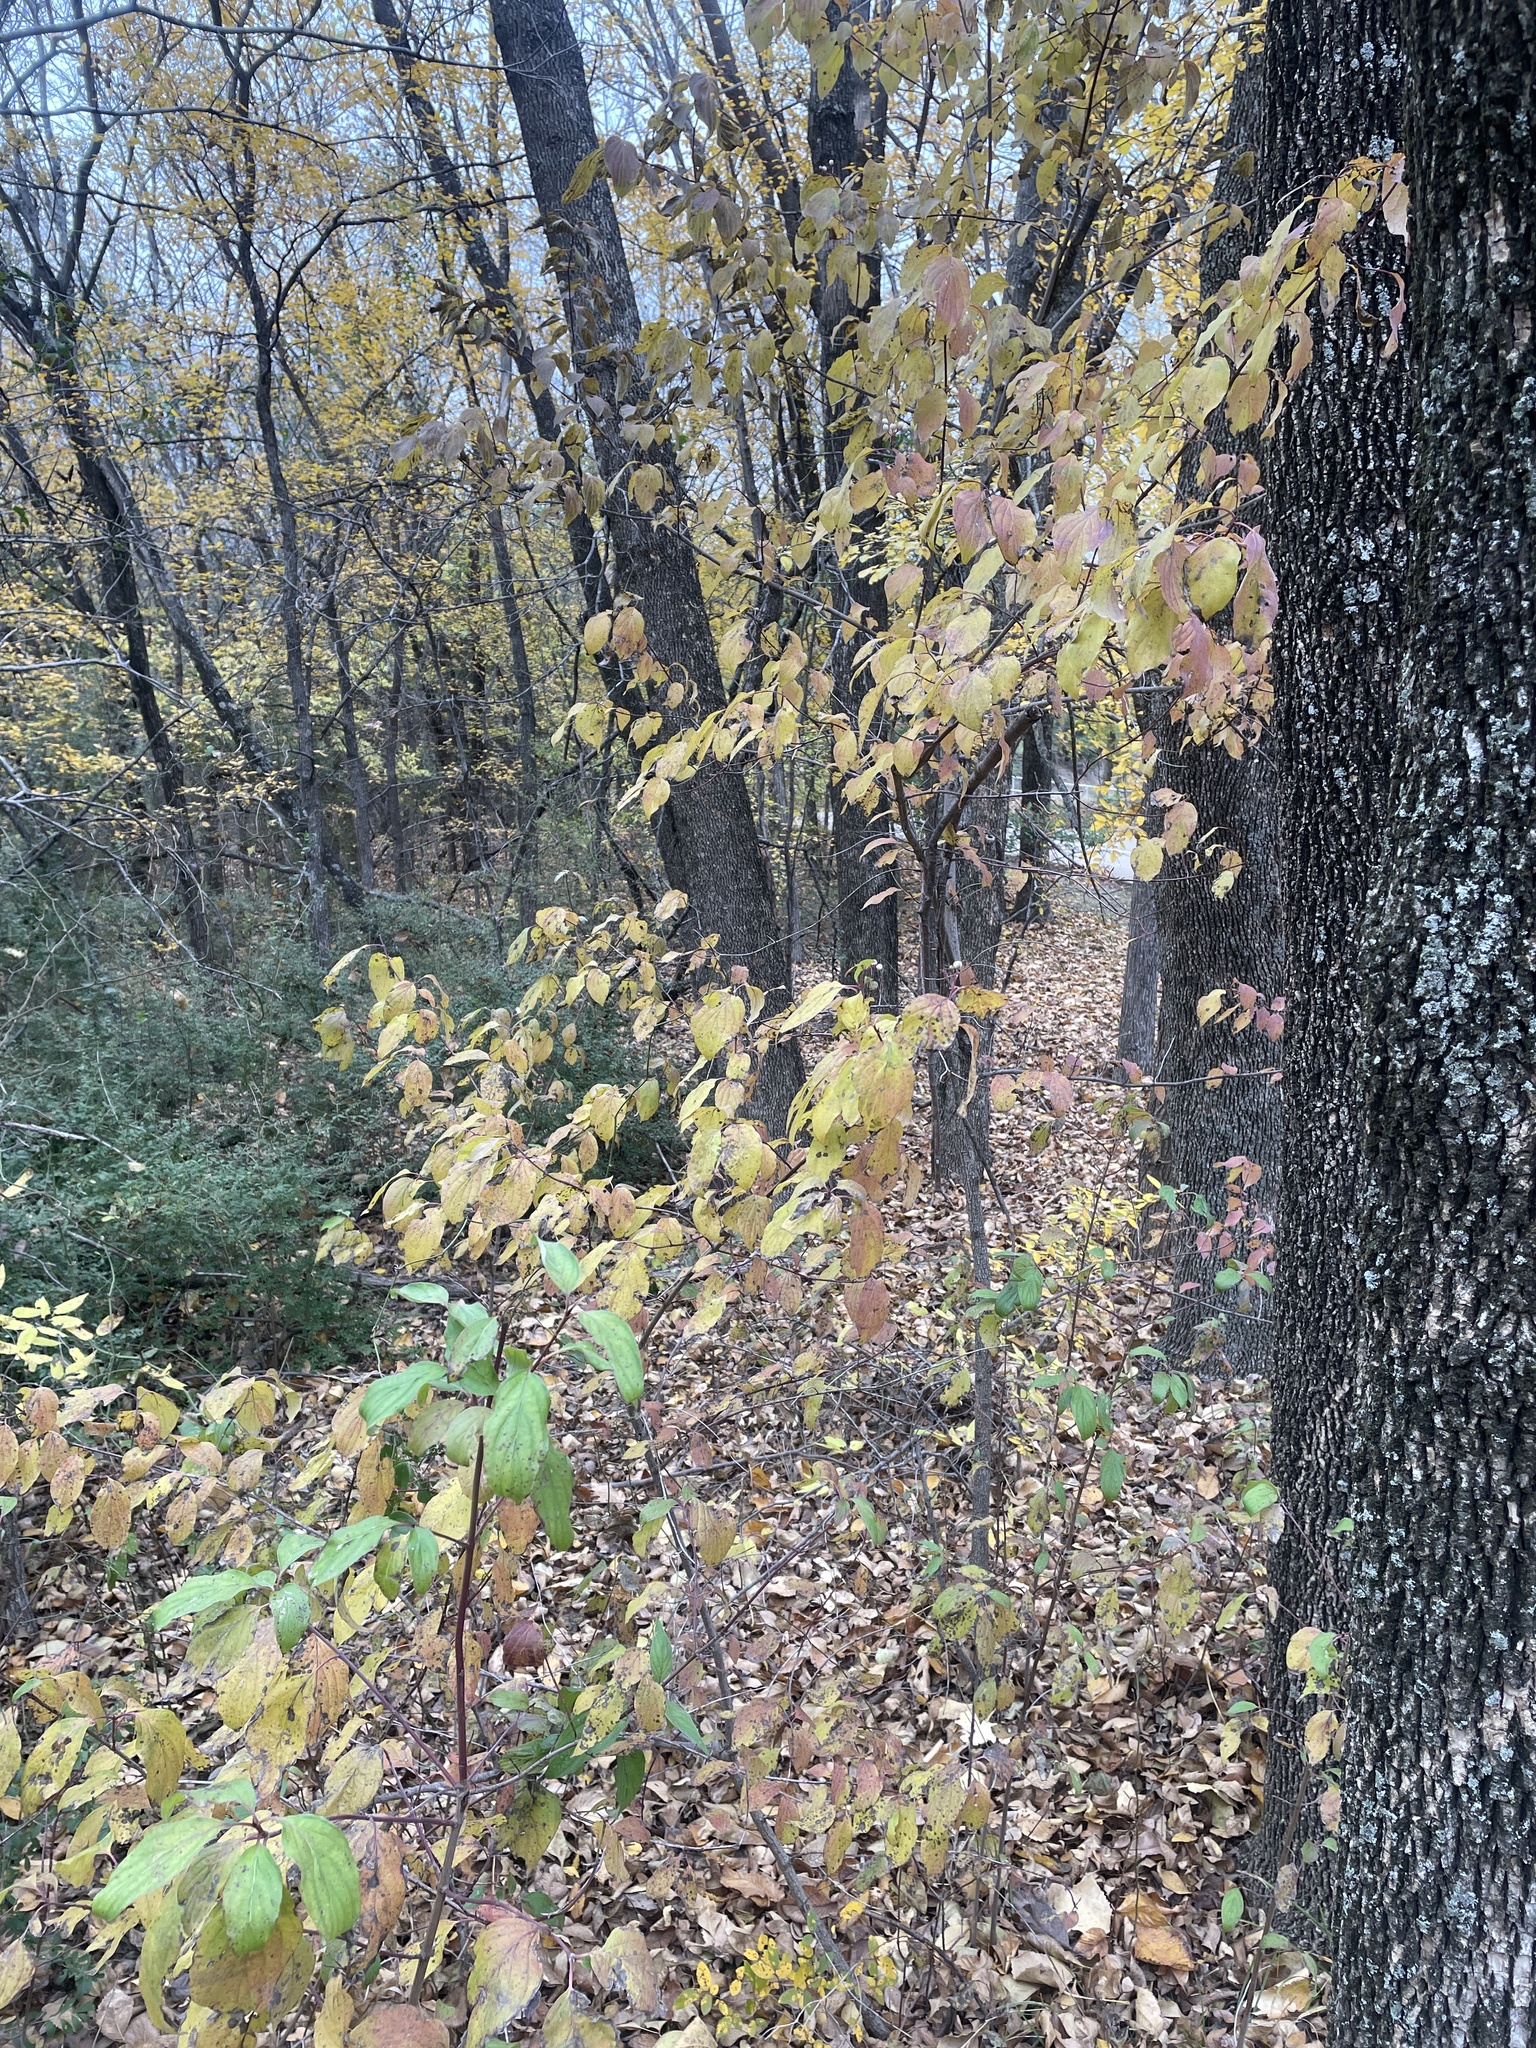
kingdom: Plantae
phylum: Tracheophyta
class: Magnoliopsida
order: Cornales
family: Cornaceae
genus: Cornus
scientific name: Cornus drummondii
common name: Rough-leaf dogwood
